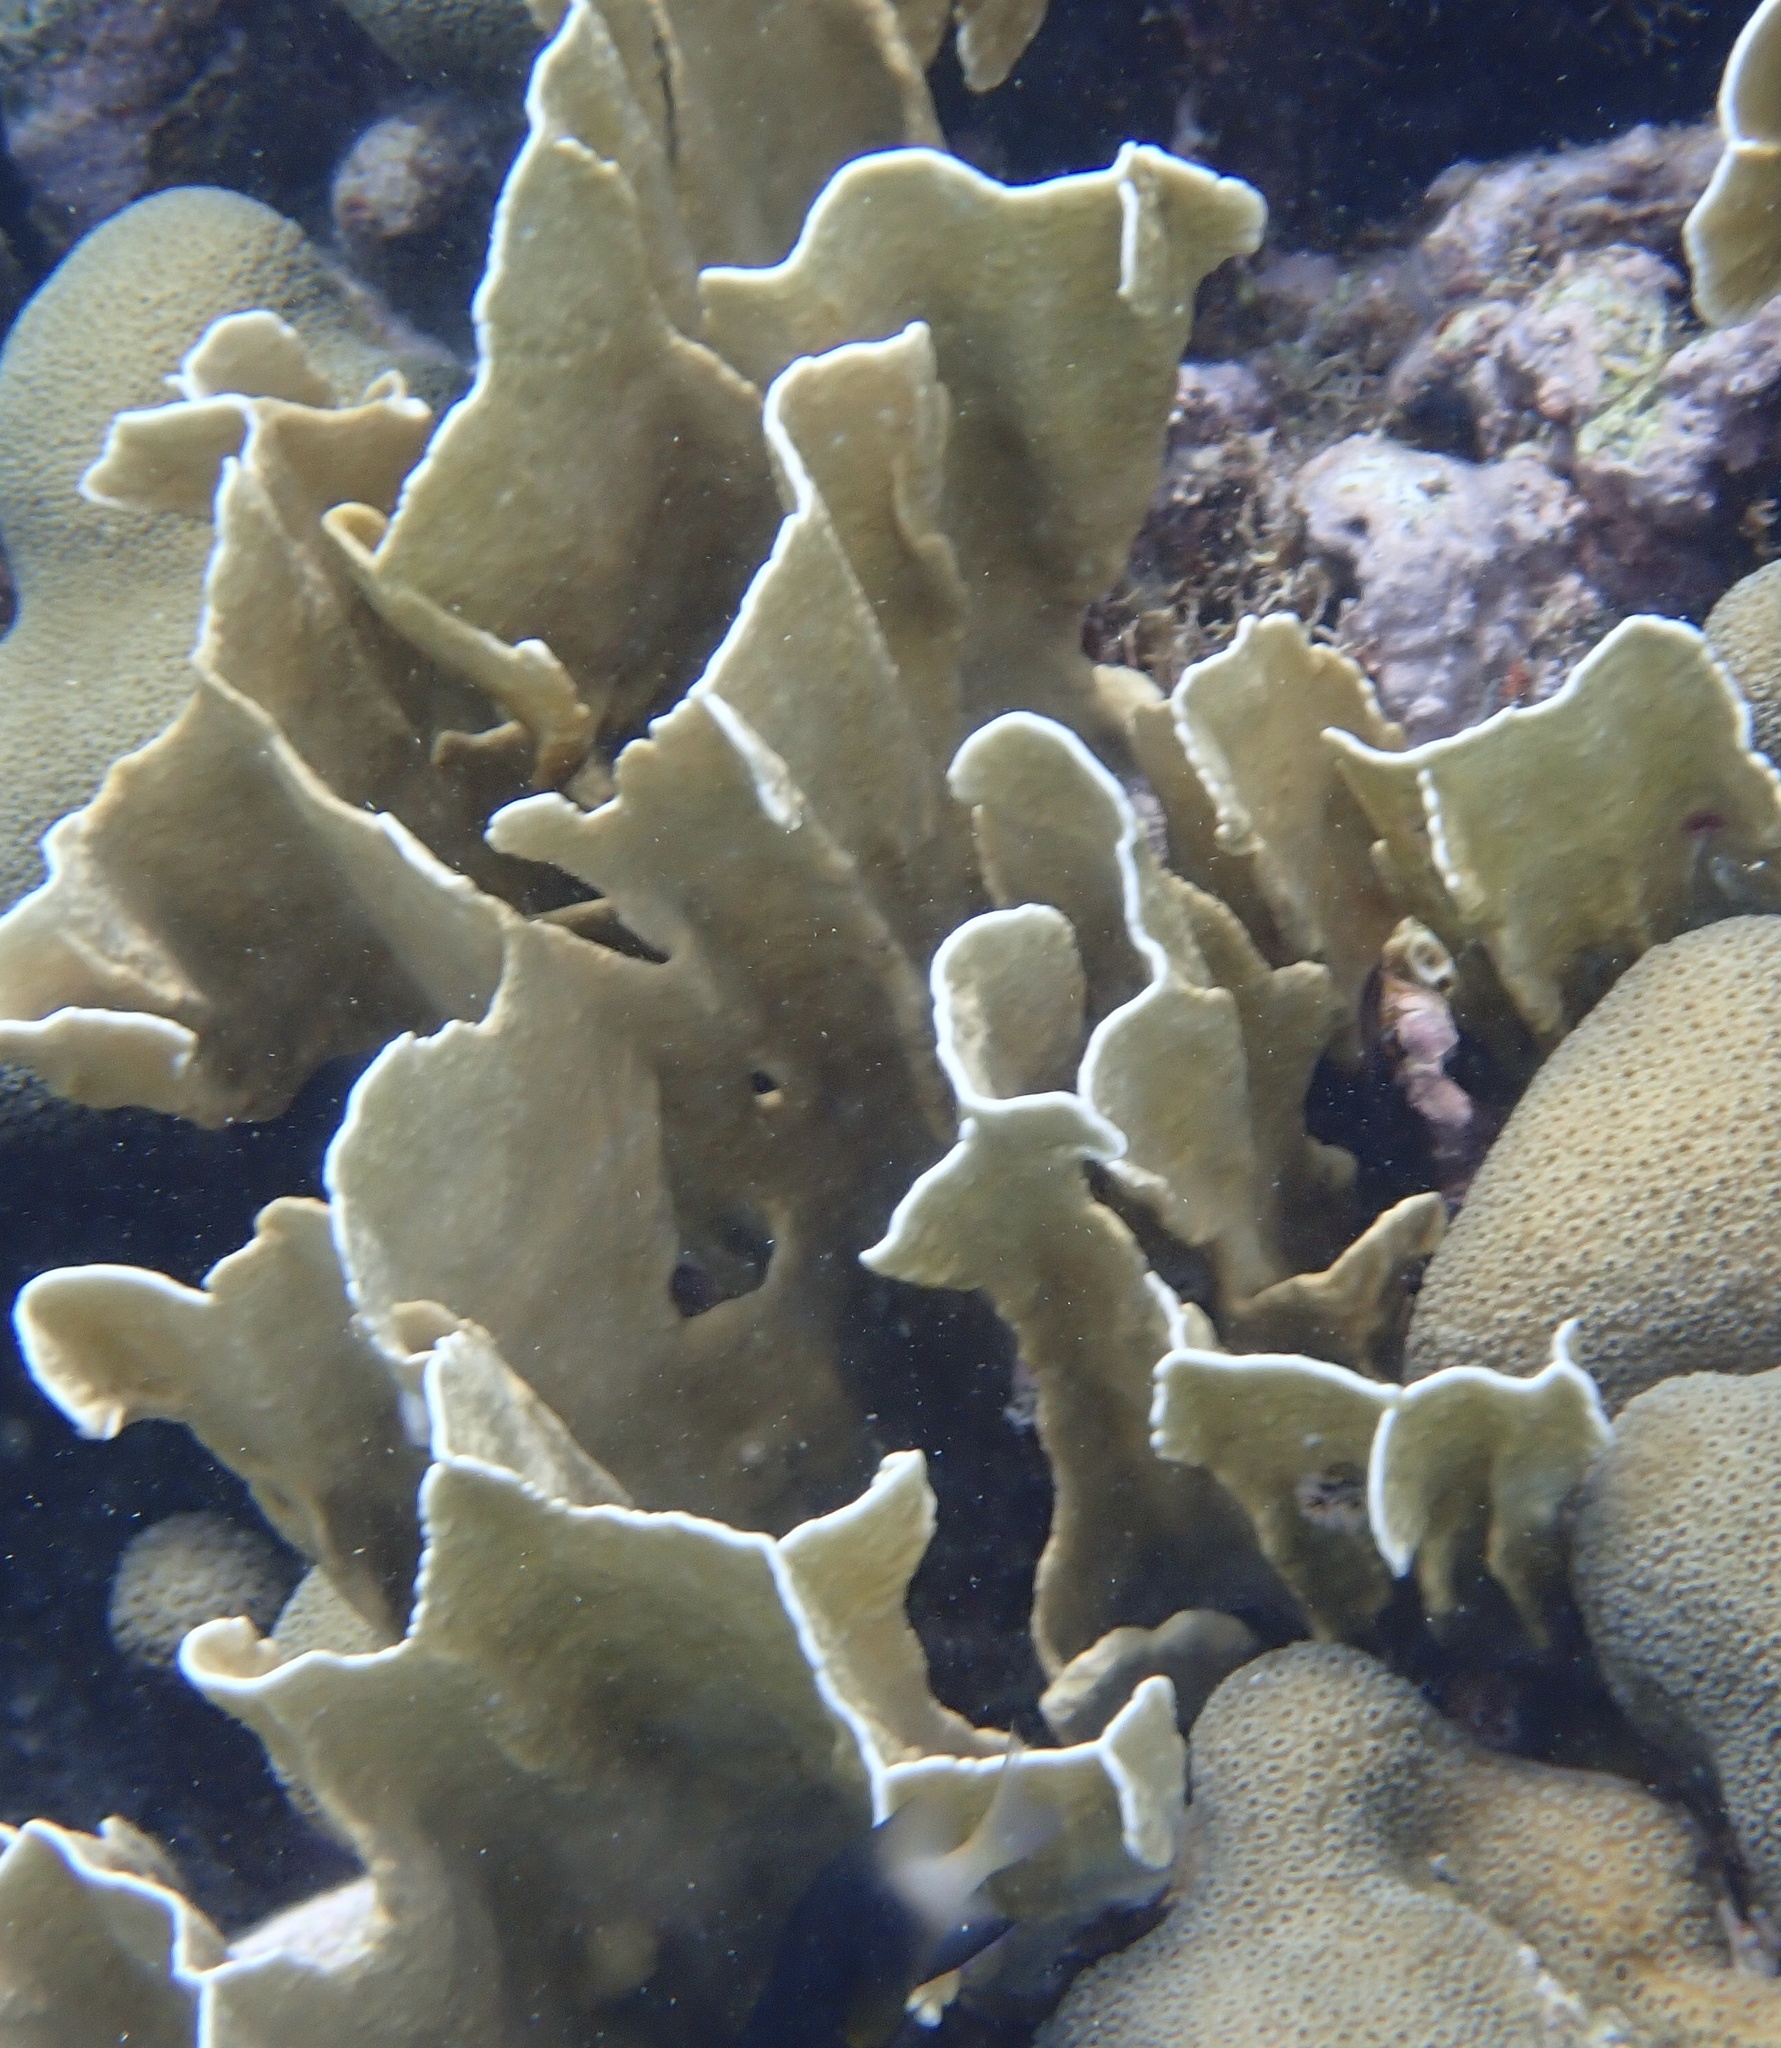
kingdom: Animalia
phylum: Cnidaria
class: Hydrozoa
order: Anthoathecata
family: Milleporidae
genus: Millepora
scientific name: Millepora squarrosa
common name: Crustal fire coral
